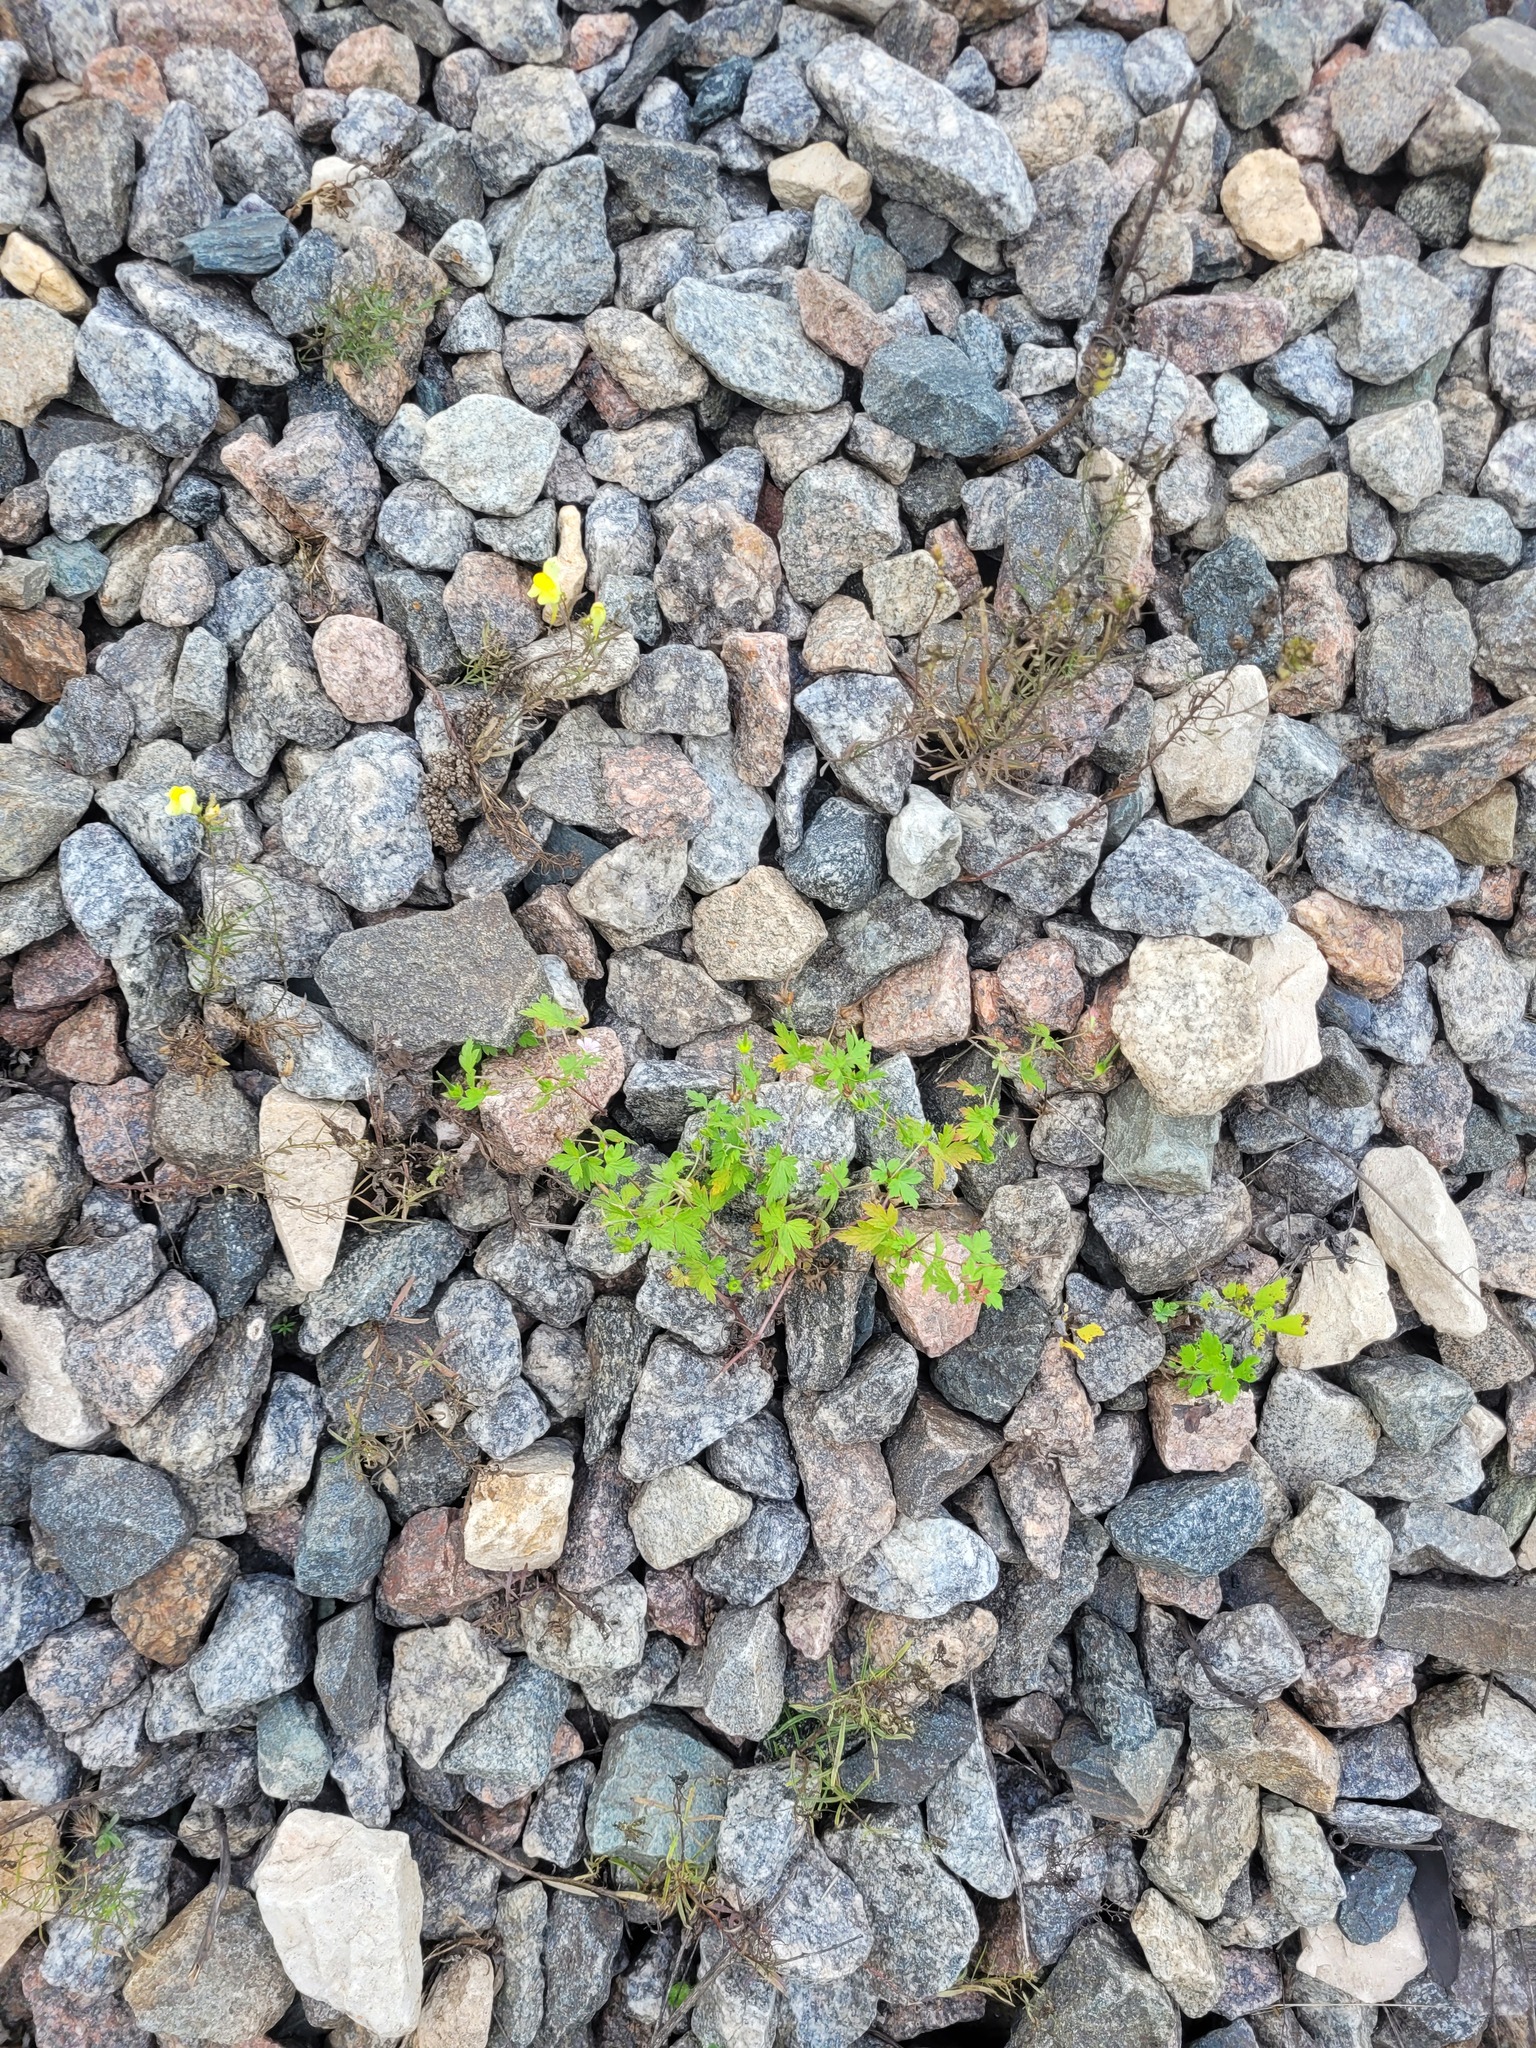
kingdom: Plantae
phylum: Tracheophyta
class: Magnoliopsida
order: Geraniales
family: Geraniaceae
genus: Geranium
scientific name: Geranium sibiricum
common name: Siberian crane's-bill
